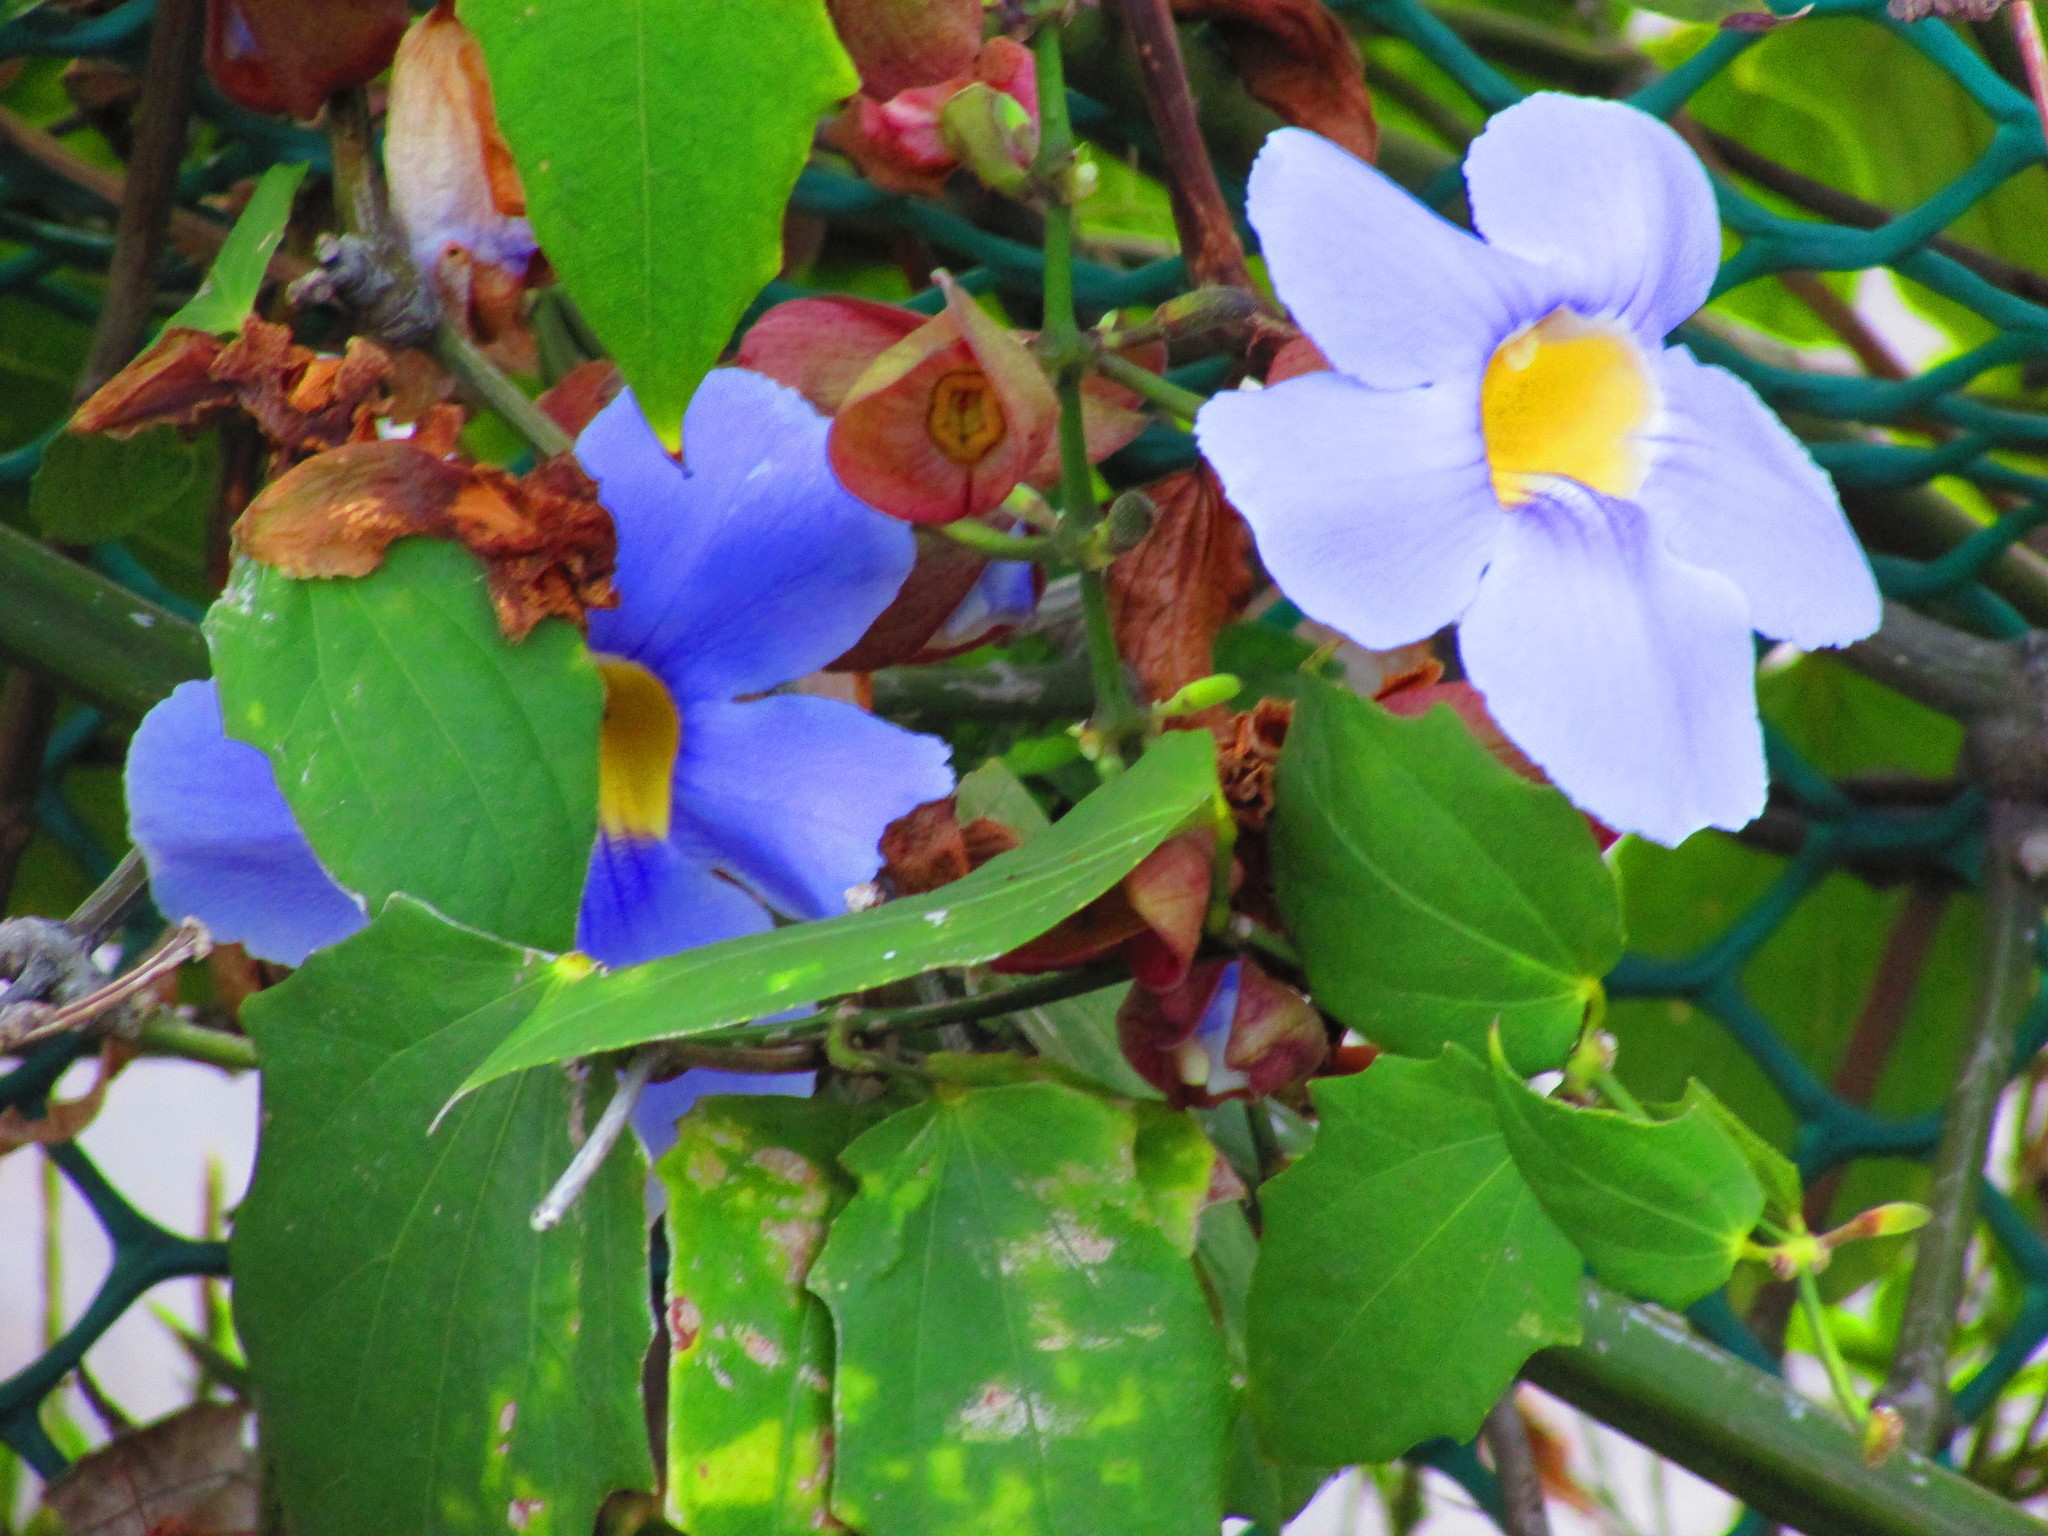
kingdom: Plantae
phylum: Tracheophyta
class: Magnoliopsida
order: Lamiales
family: Acanthaceae
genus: Thunbergia
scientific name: Thunbergia grandiflora
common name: Bengal trumpet
